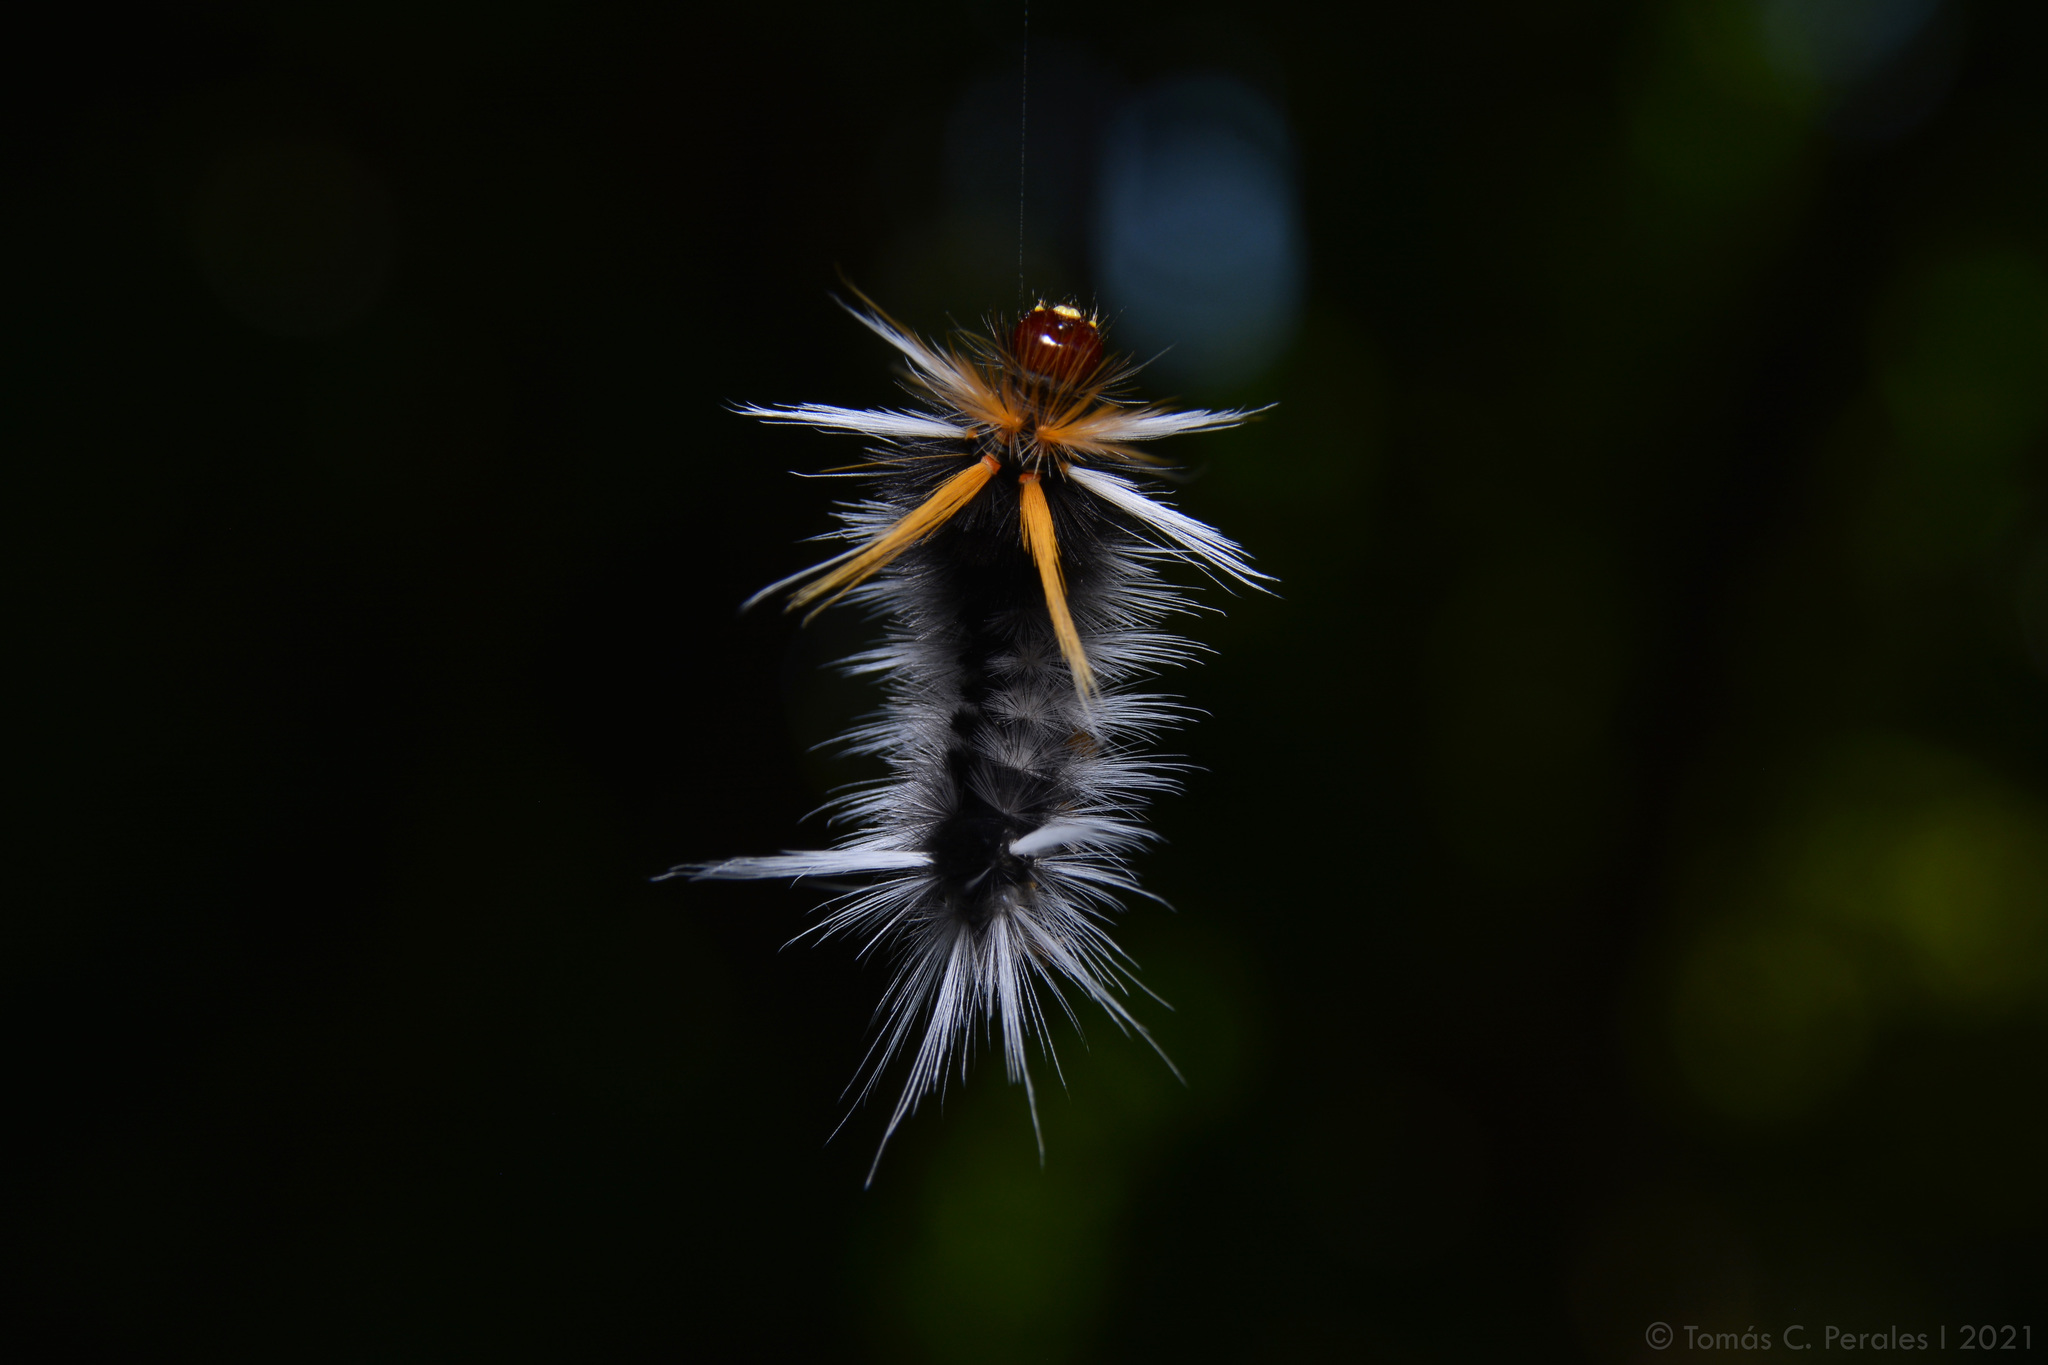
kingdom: Animalia
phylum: Arthropoda
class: Insecta
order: Lepidoptera
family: Erebidae
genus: Halysidota
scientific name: Halysidota ruscheweyhi
